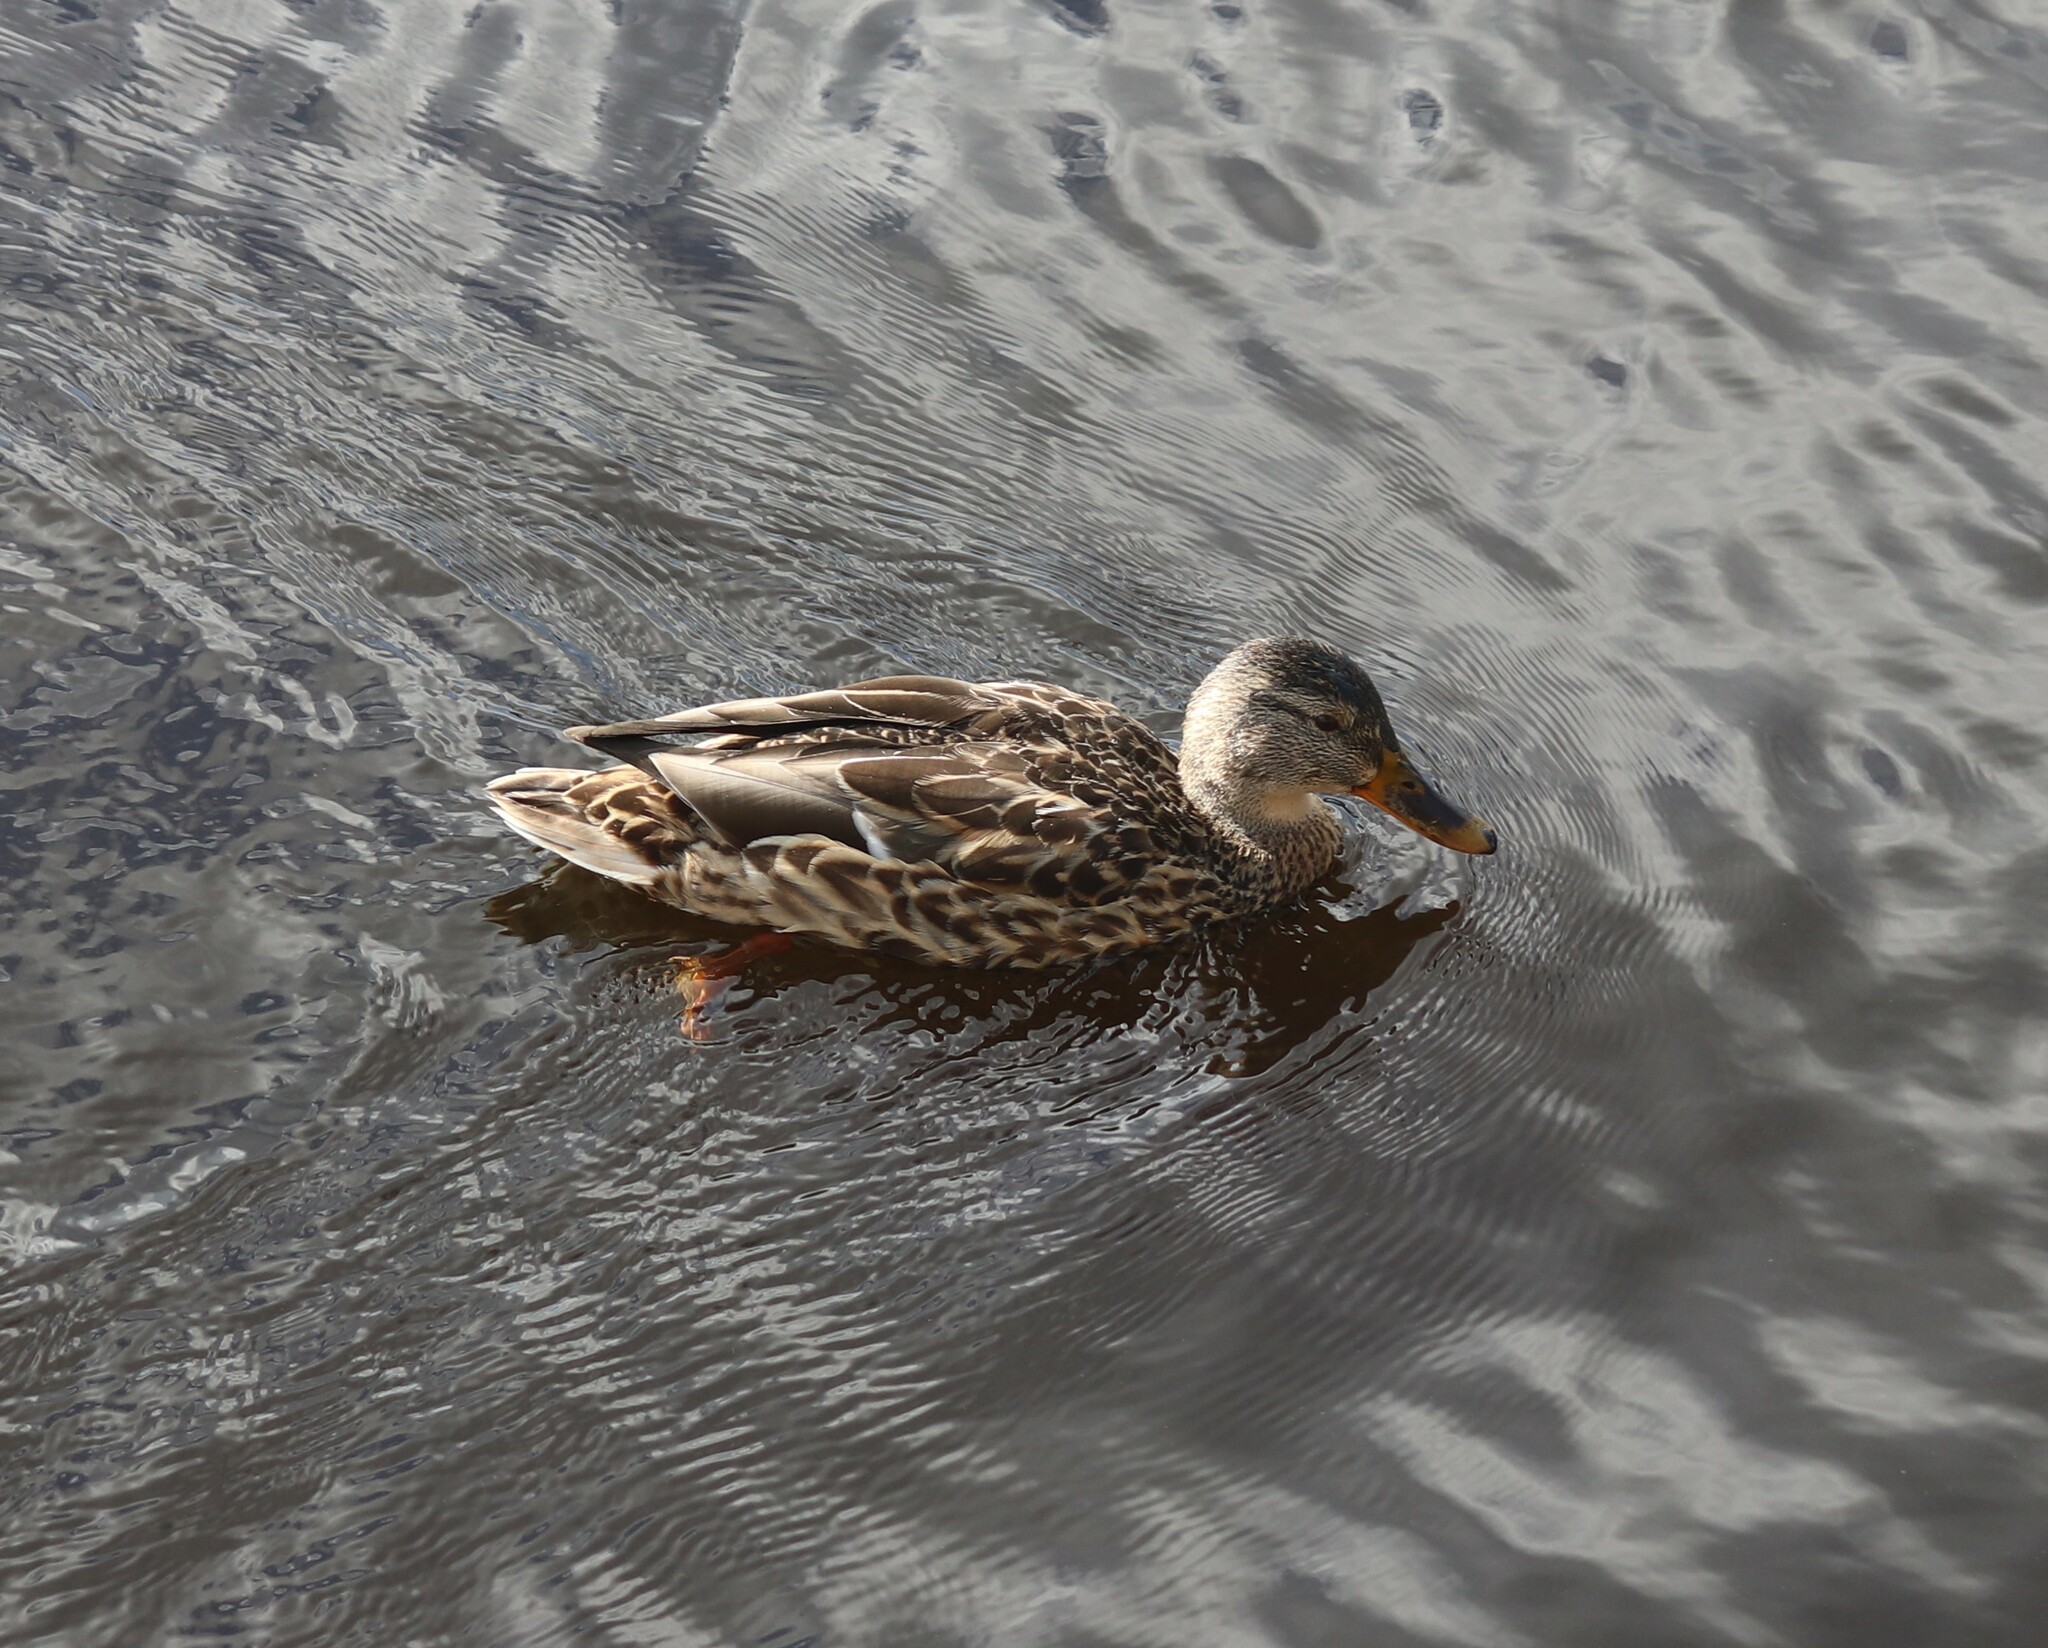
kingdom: Animalia
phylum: Chordata
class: Aves
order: Anseriformes
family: Anatidae
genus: Anas
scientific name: Anas platyrhynchos
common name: Mallard
